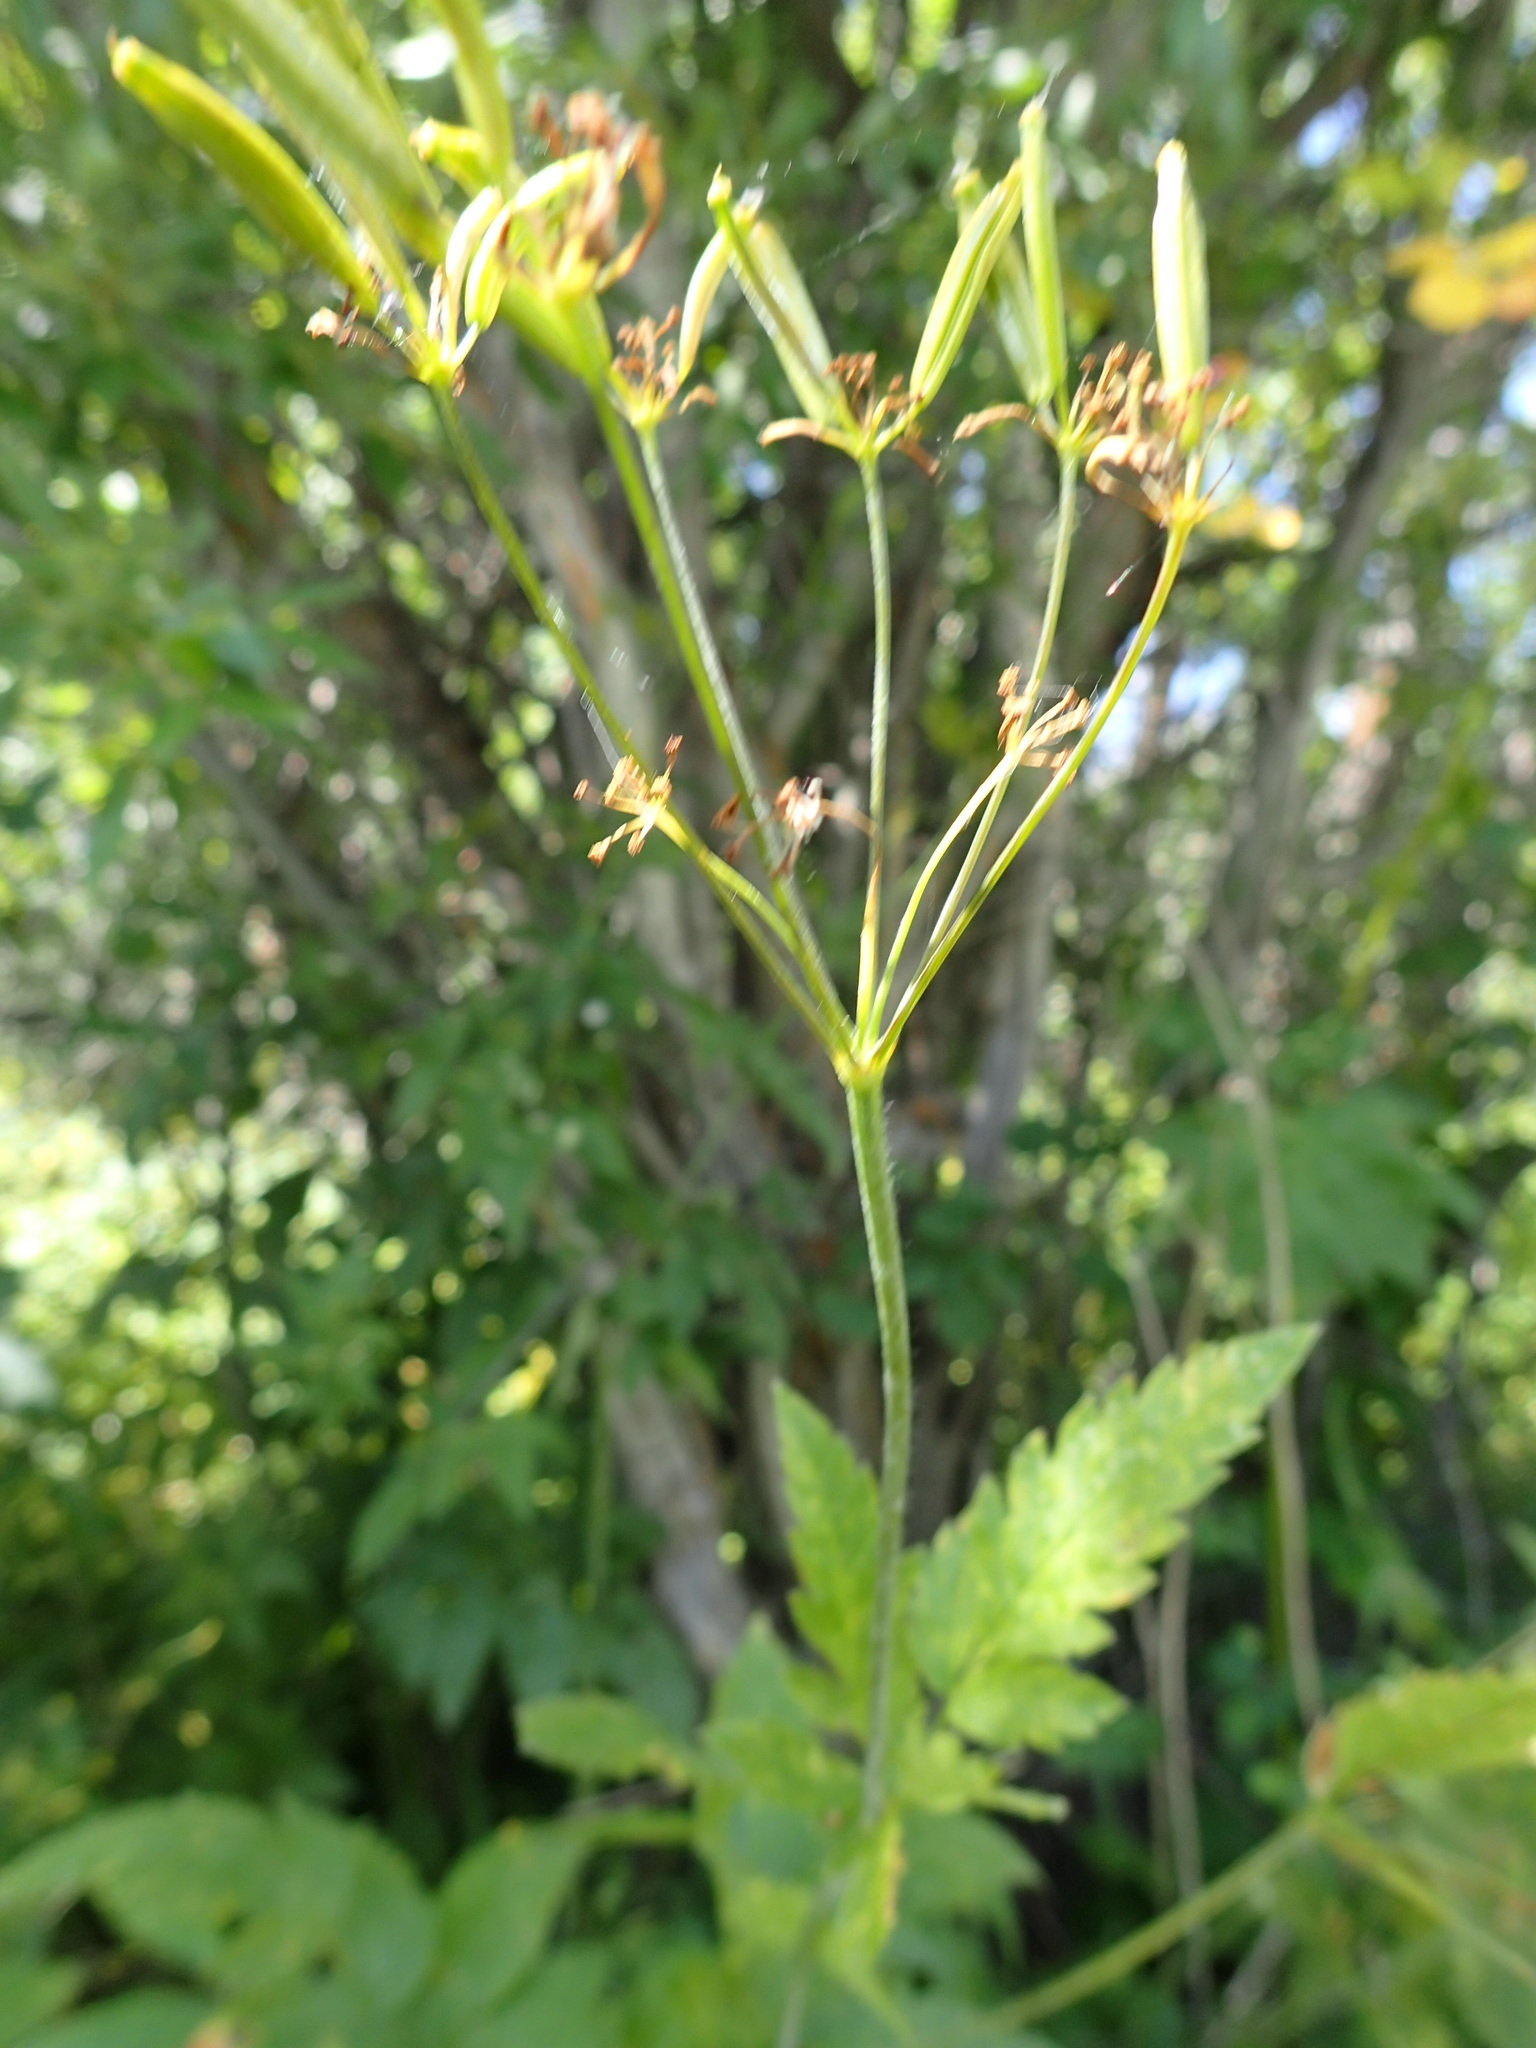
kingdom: Plantae
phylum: Tracheophyta
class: Magnoliopsida
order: Apiales
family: Apiaceae
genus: Osmorhiza
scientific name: Osmorhiza occidentalis
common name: Western sweet cicely
